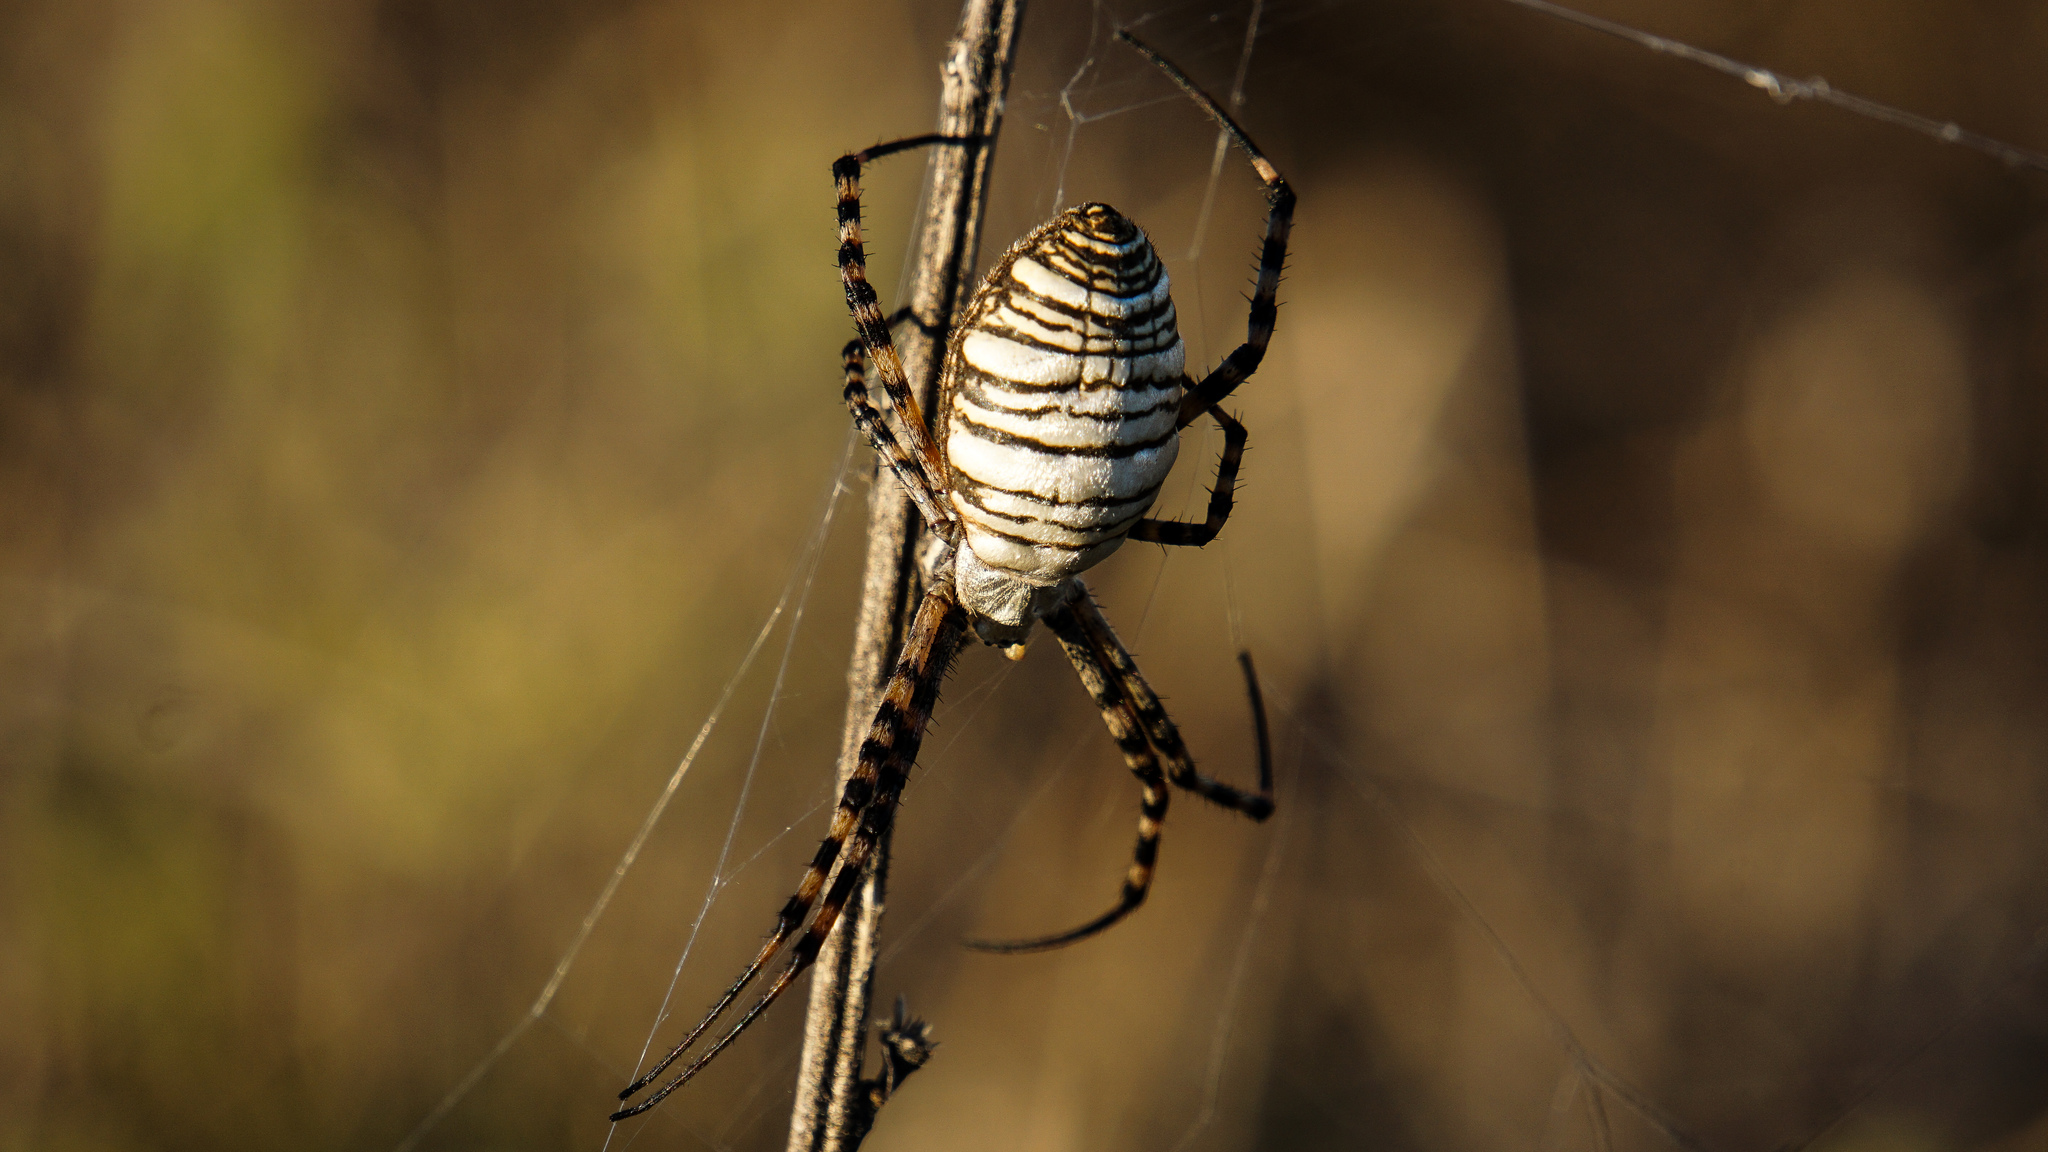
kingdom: Animalia
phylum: Arthropoda
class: Arachnida
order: Araneae
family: Araneidae
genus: Argiope
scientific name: Argiope trifasciata
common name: Banded garden spider
